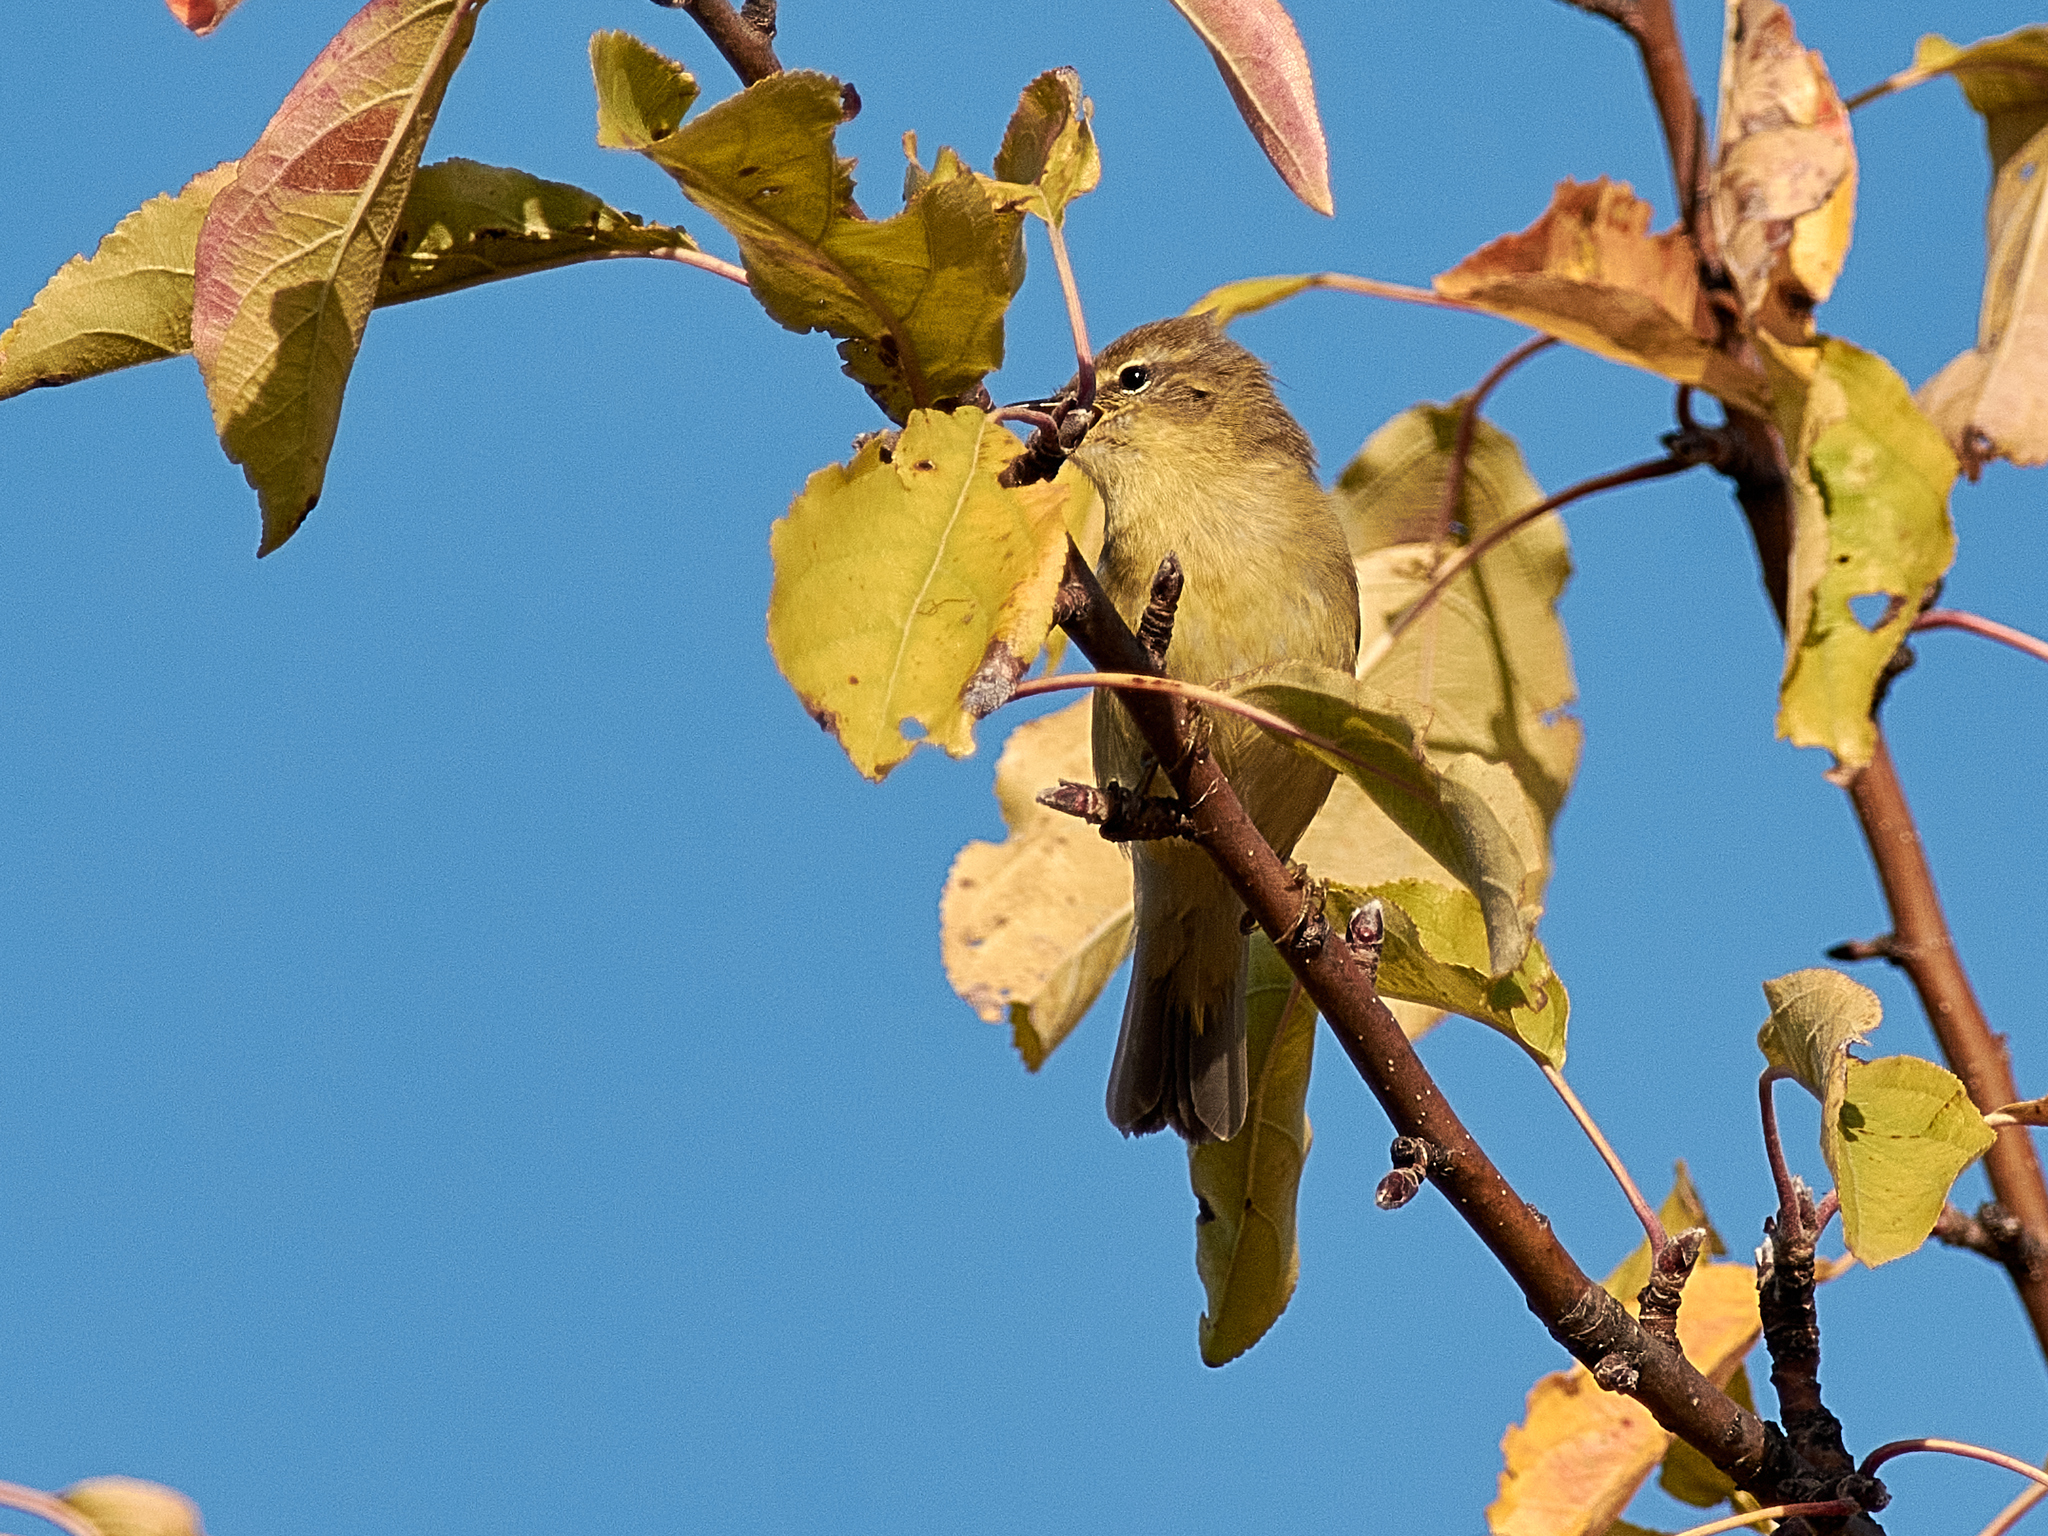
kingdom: Animalia
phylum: Chordata
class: Aves
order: Passeriformes
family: Phylloscopidae
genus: Phylloscopus
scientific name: Phylloscopus collybita
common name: Common chiffchaff
